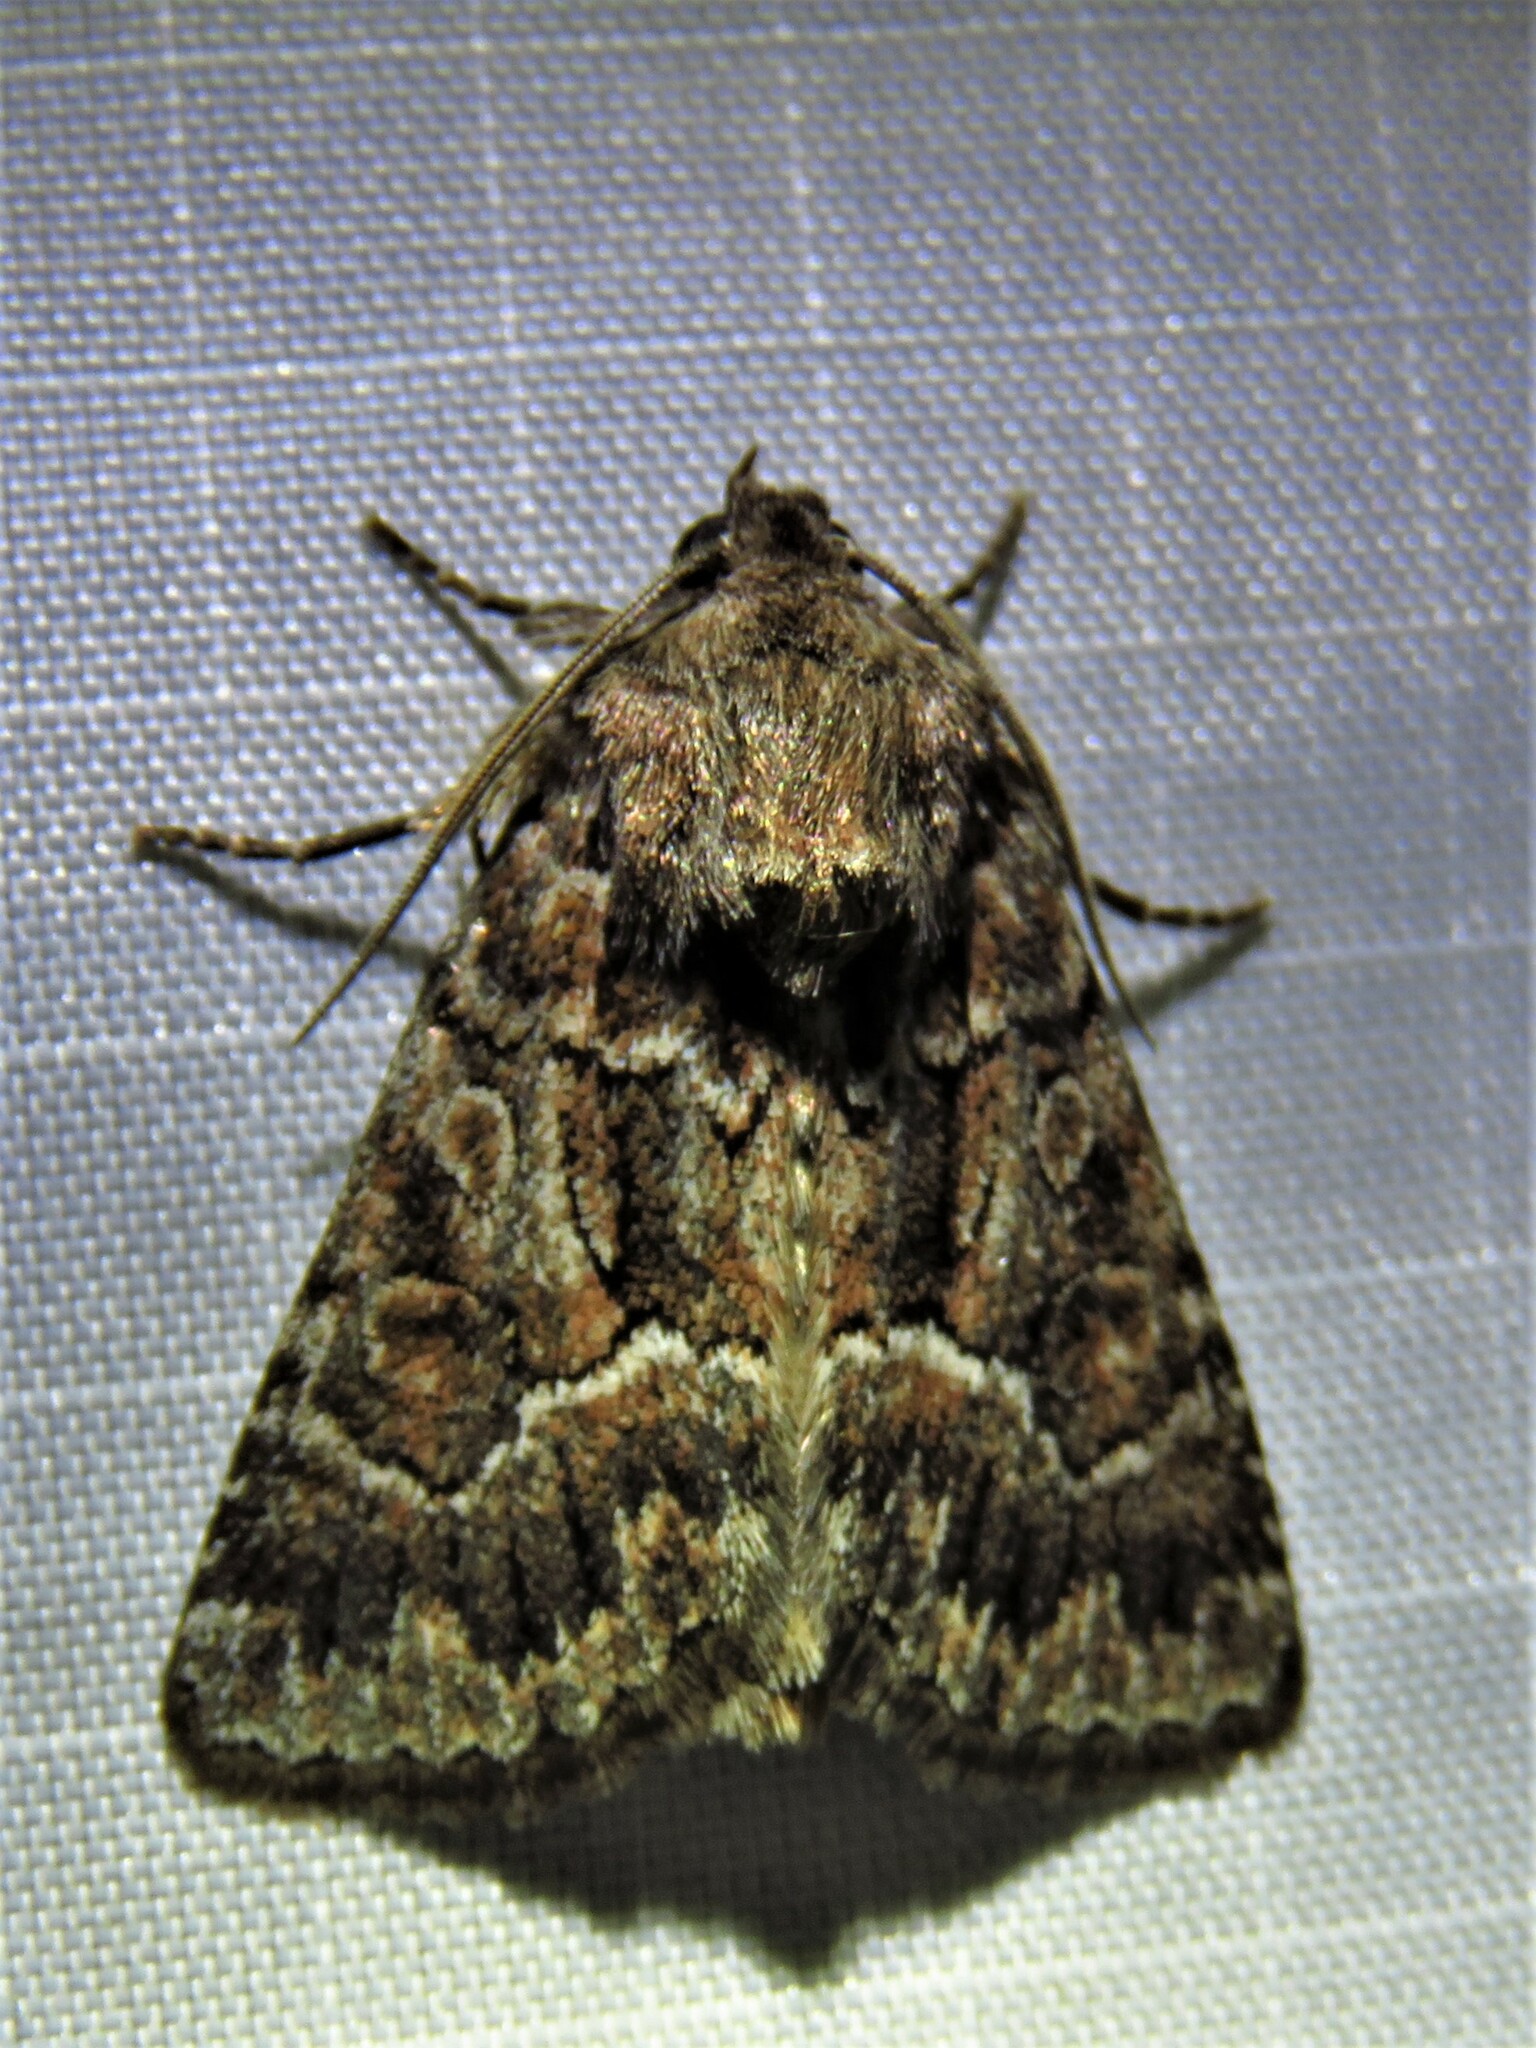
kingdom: Animalia
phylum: Arthropoda
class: Insecta
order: Lepidoptera
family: Noctuidae
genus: Thalpophila
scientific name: Thalpophila matura
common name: Straw underwing
